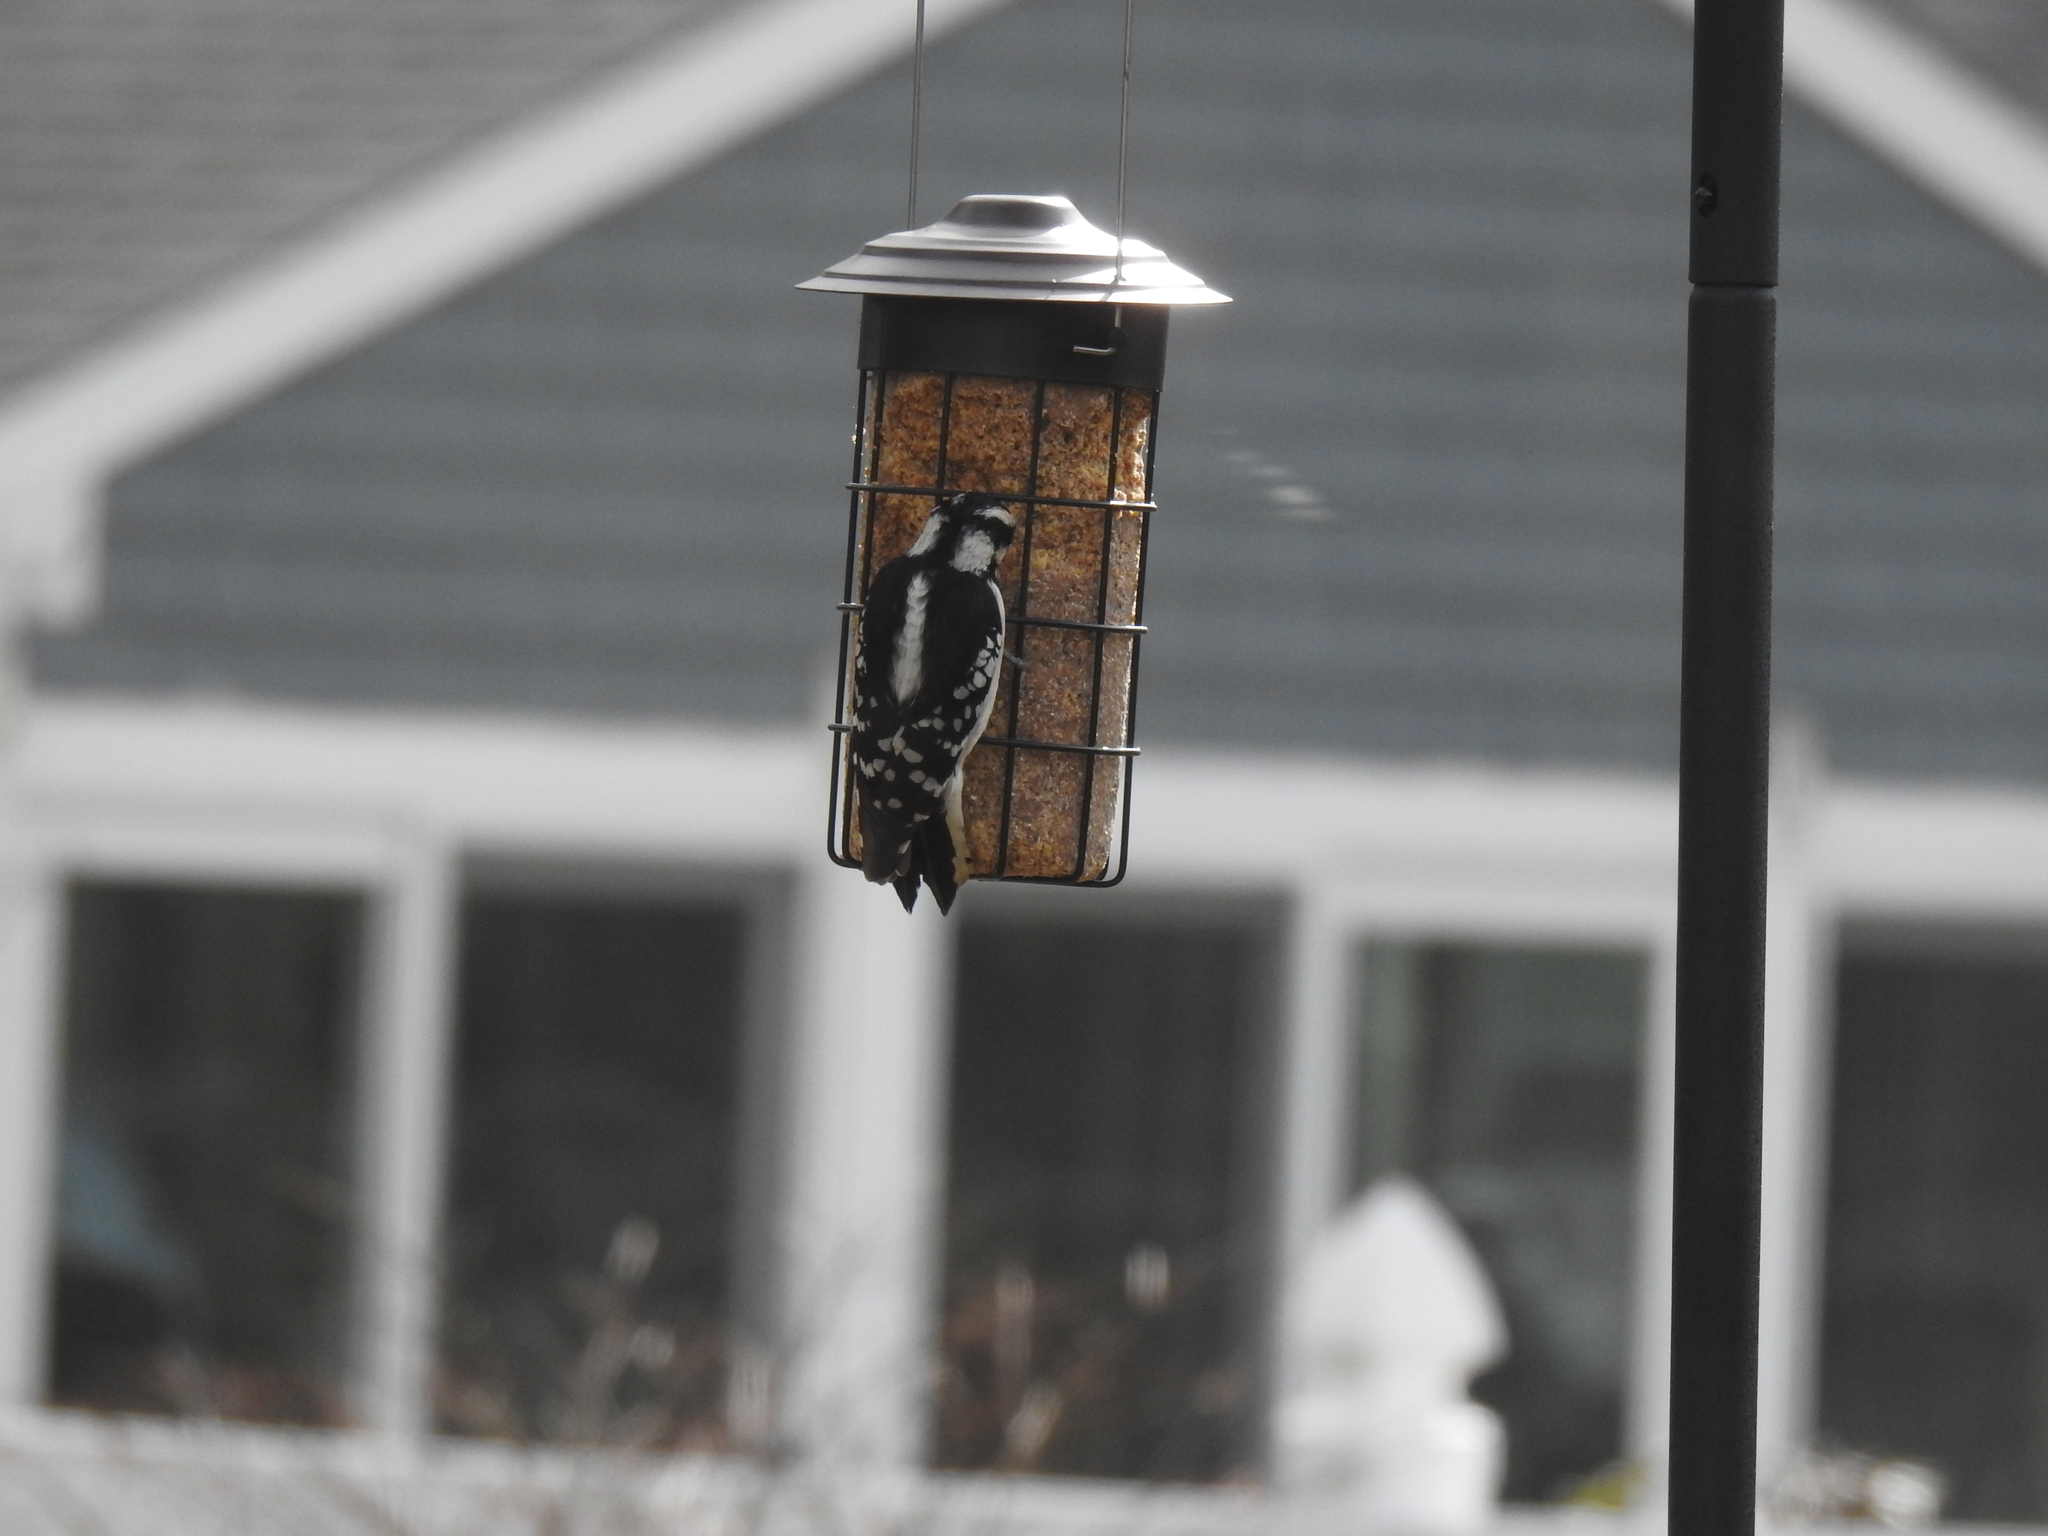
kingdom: Animalia
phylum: Chordata
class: Aves
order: Piciformes
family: Picidae
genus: Dryobates
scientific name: Dryobates pubescens
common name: Downy woodpecker
